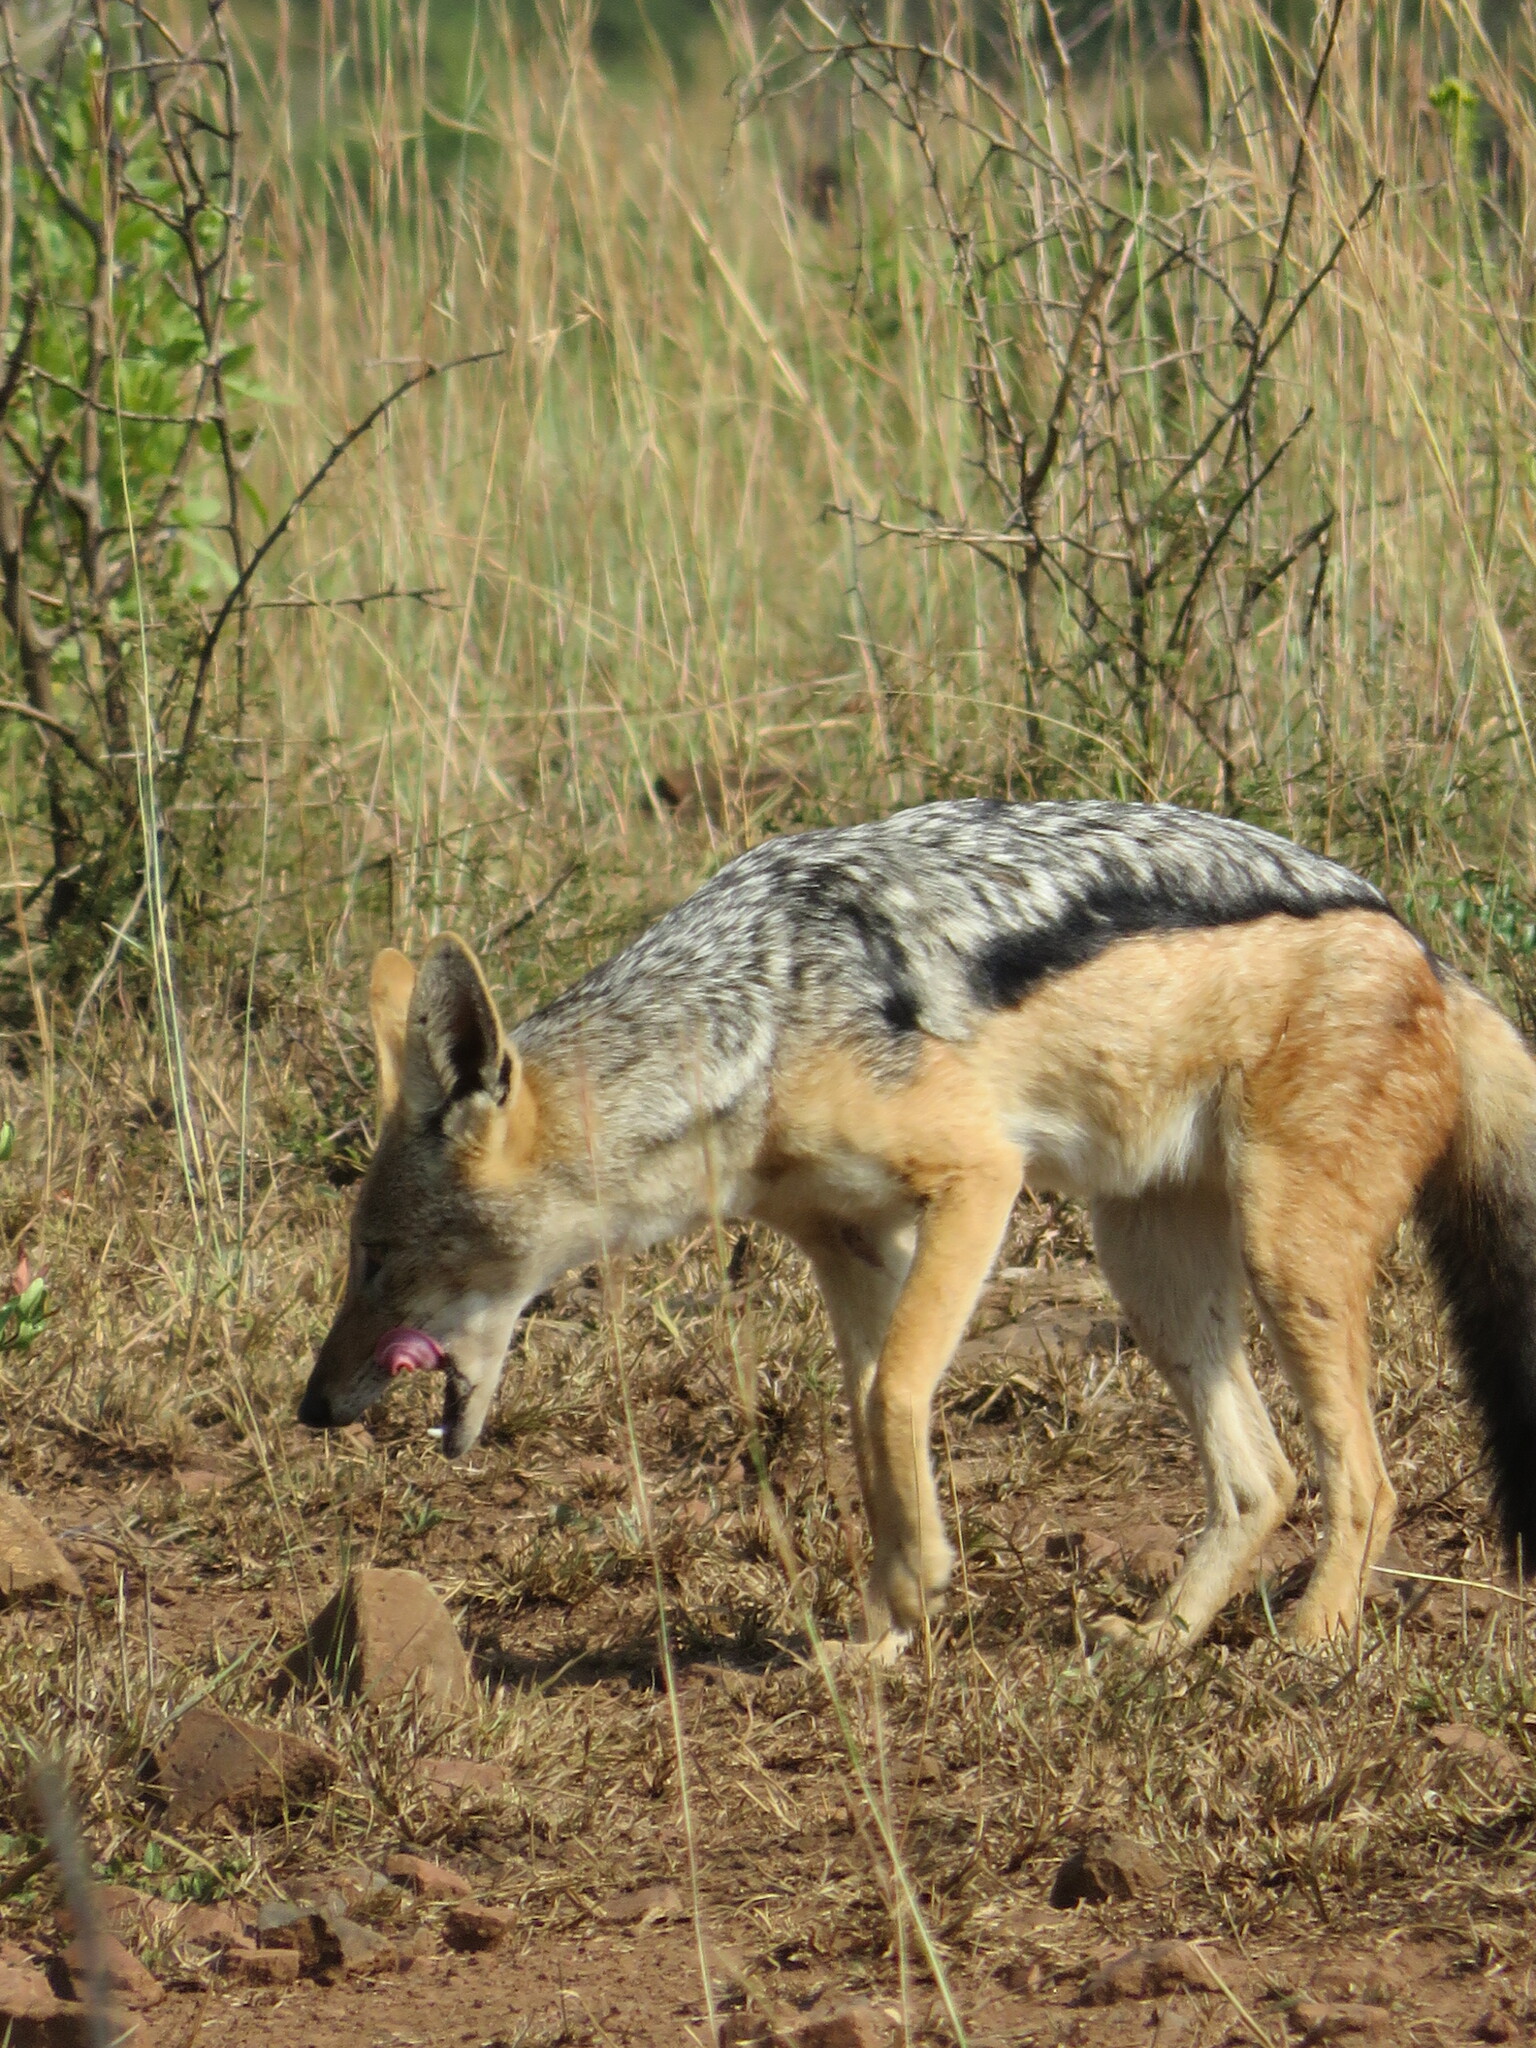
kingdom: Animalia
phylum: Chordata
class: Mammalia
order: Carnivora
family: Canidae
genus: Lupulella
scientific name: Lupulella
